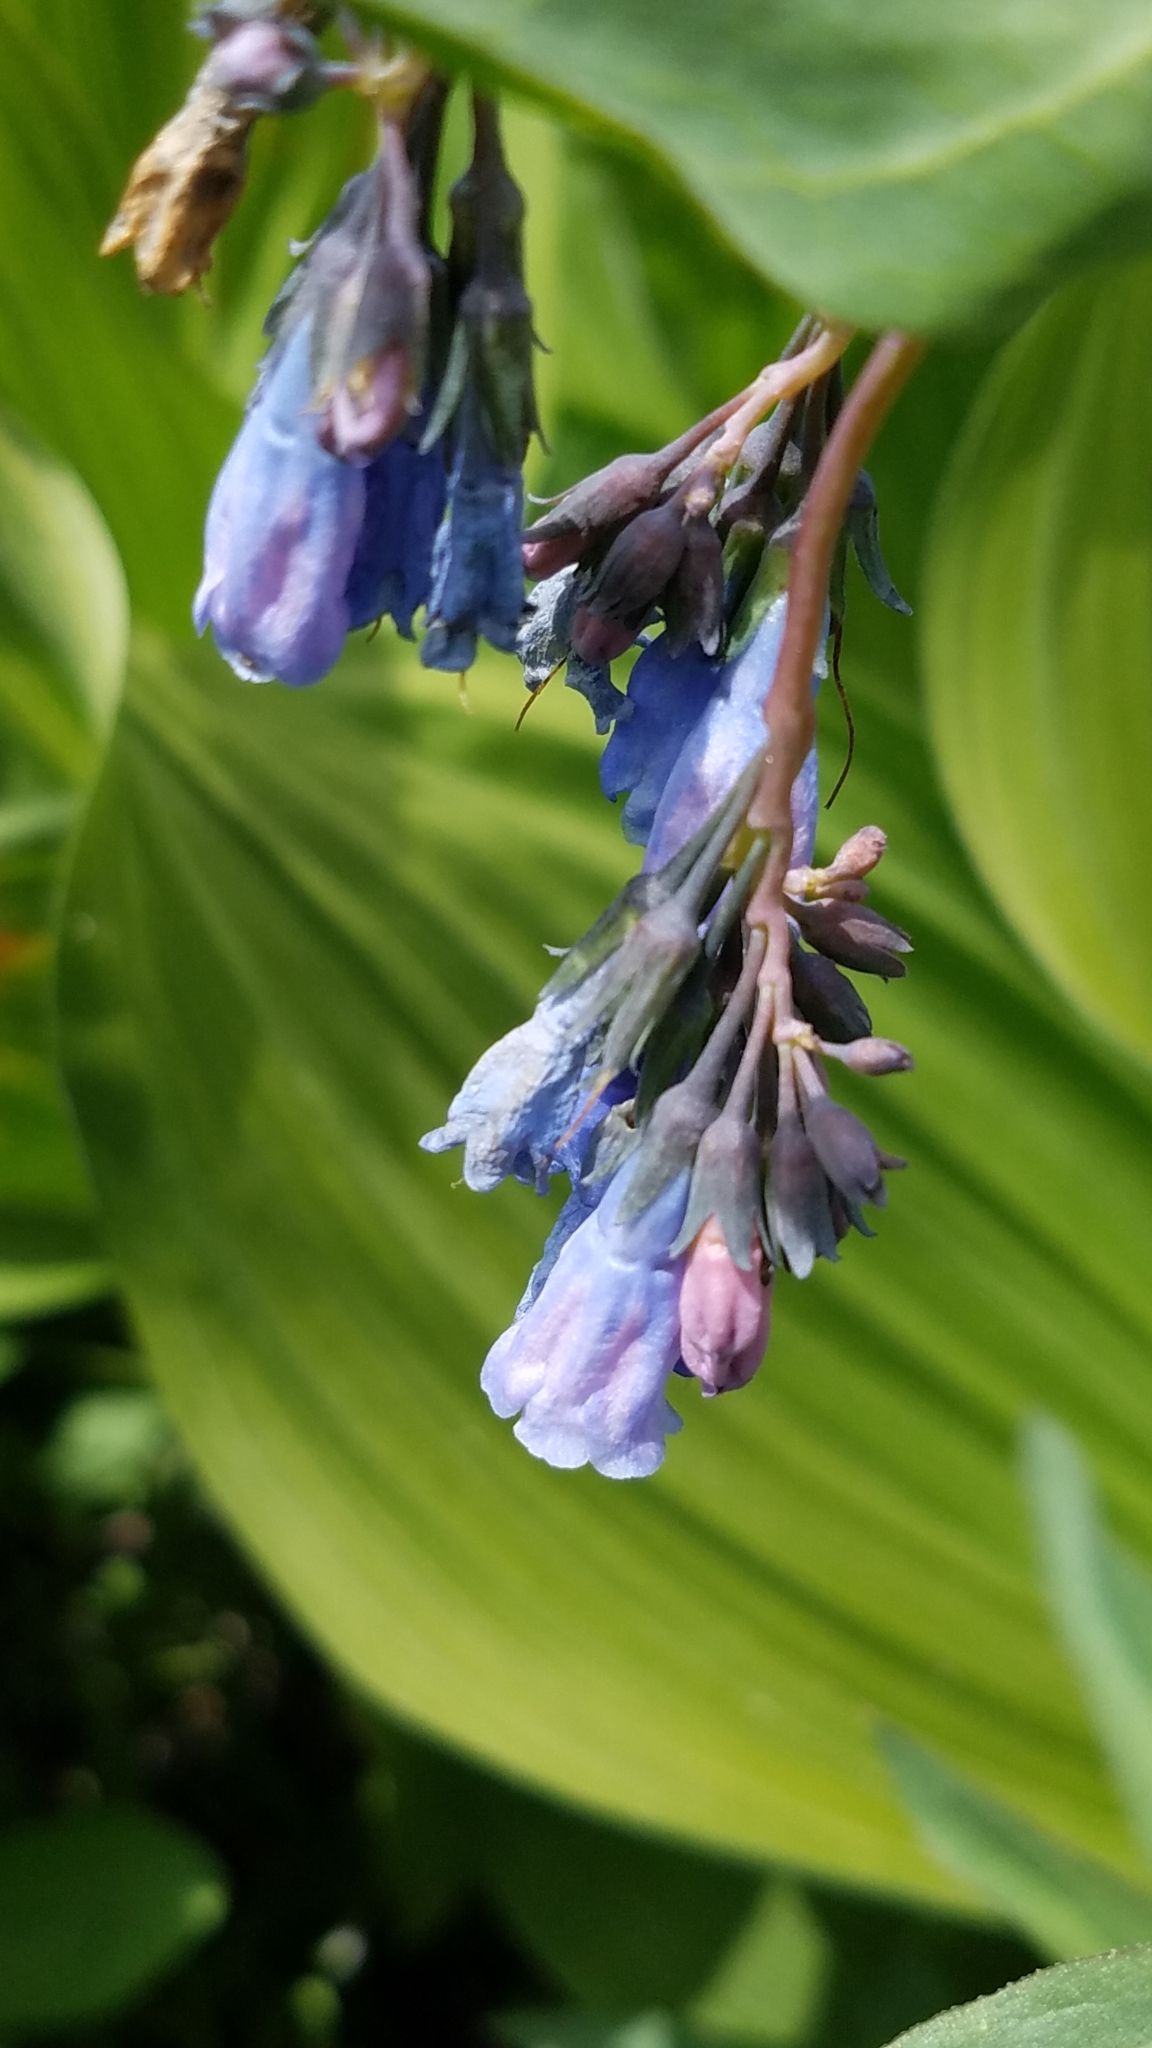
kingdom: Animalia
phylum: Arthropoda
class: Insecta
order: Hymenoptera
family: Apidae
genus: Bombus
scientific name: Bombus californicus
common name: California bumble bee
